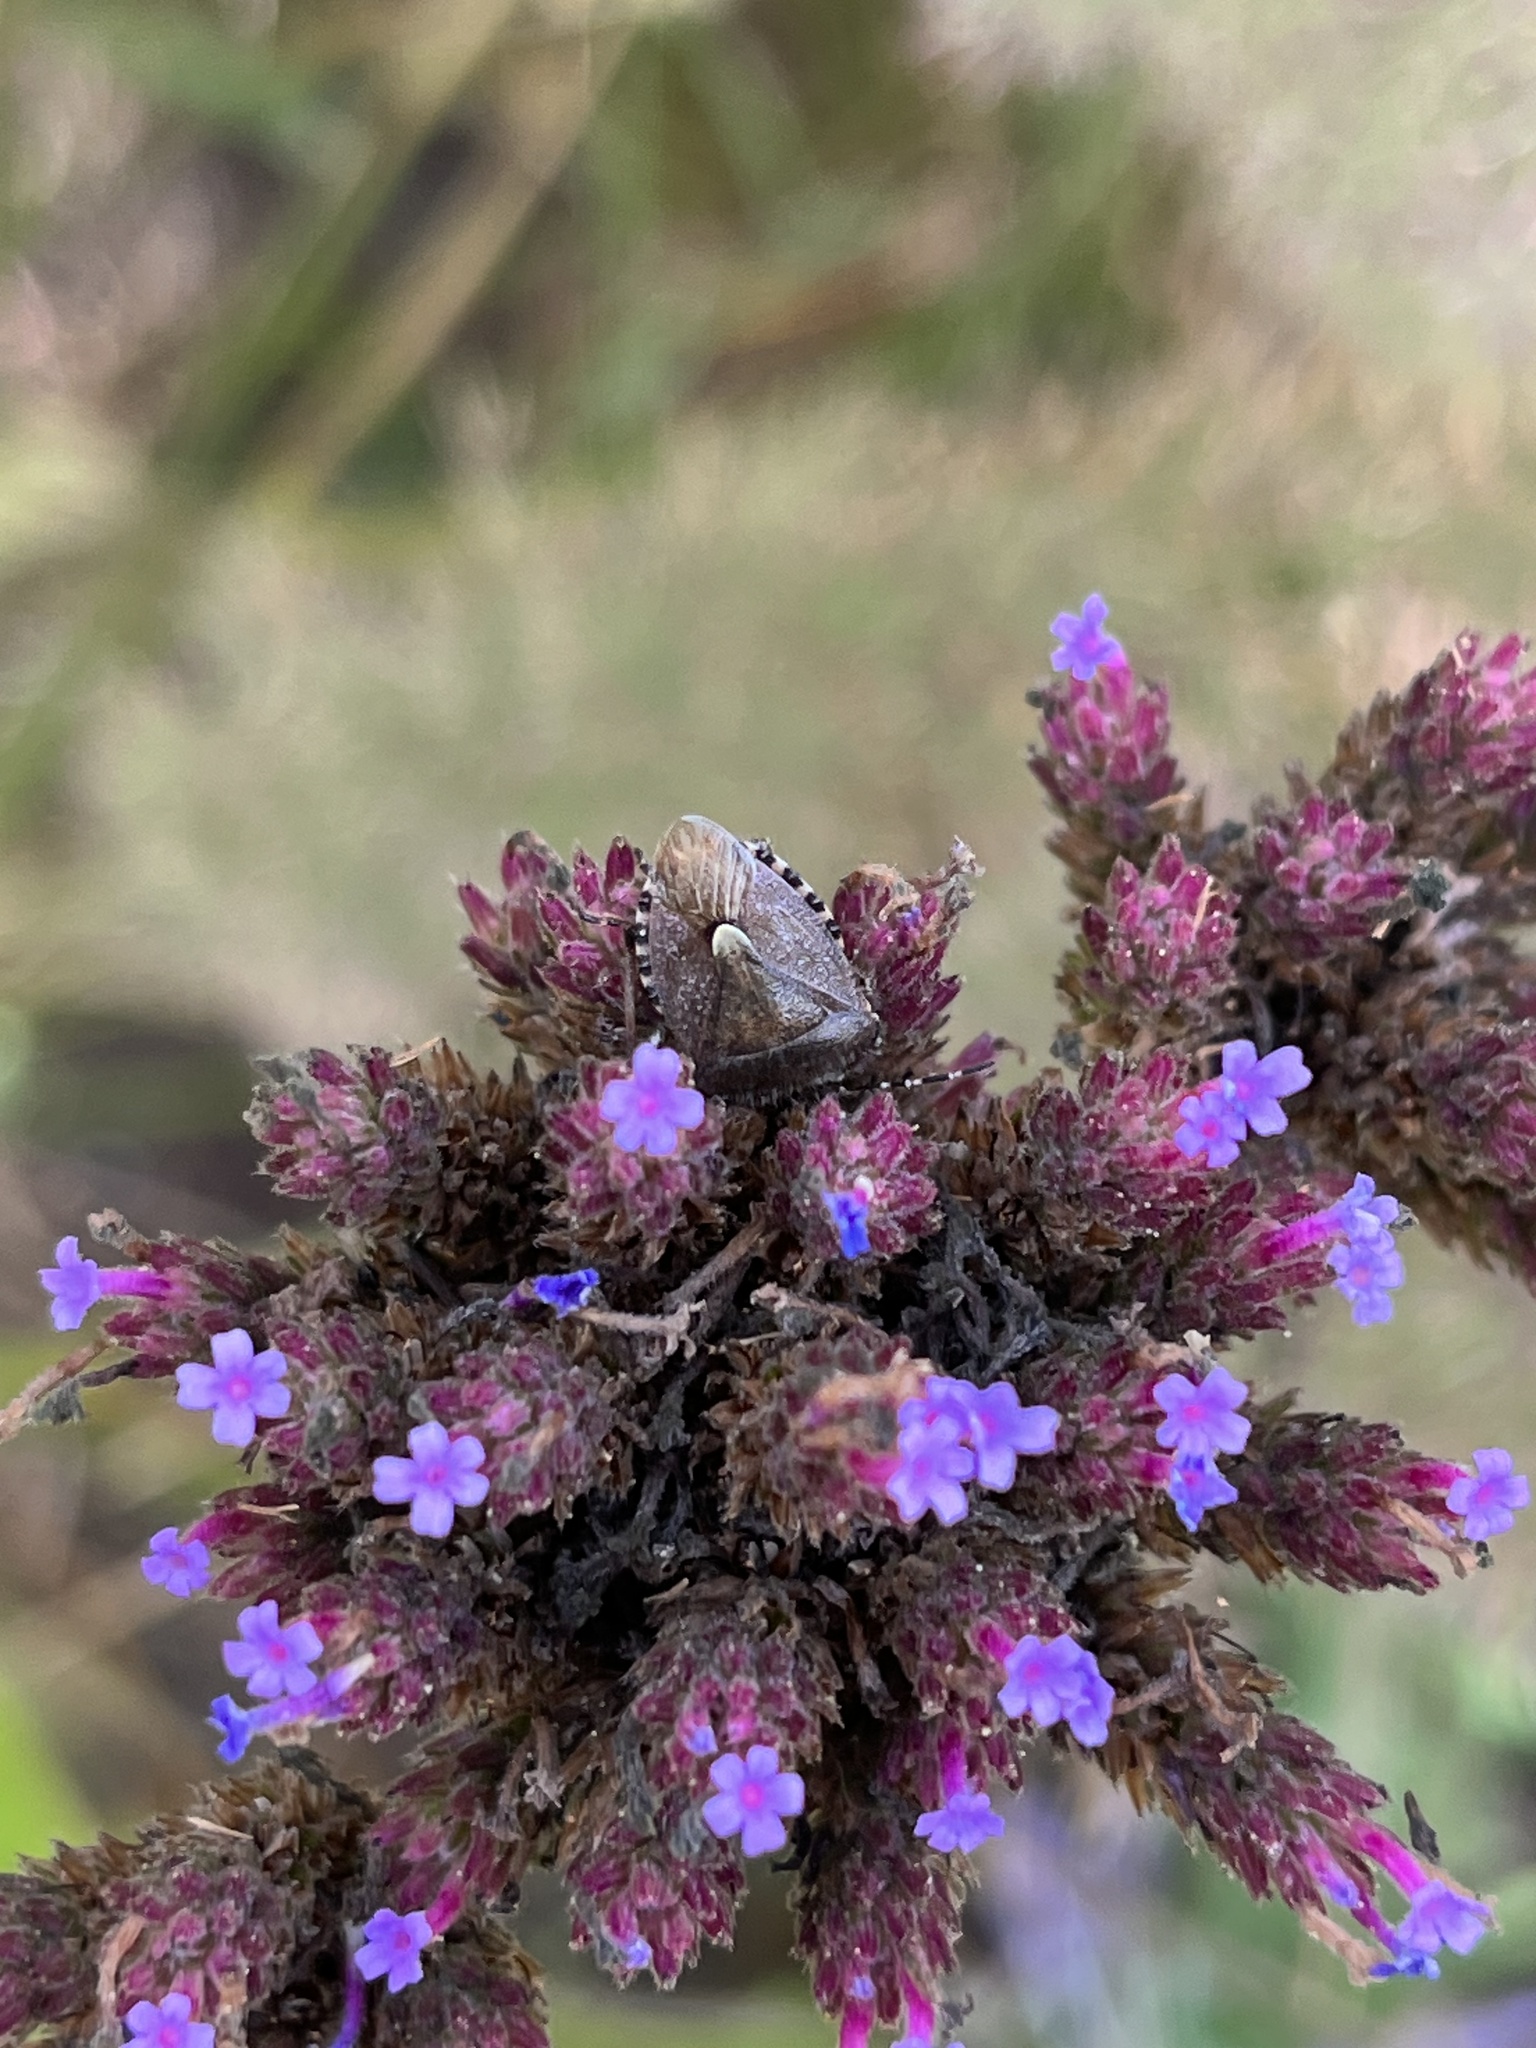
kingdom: Animalia
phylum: Arthropoda
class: Insecta
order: Hemiptera
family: Pentatomidae
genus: Dolycoris
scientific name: Dolycoris baccarum
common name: Sloe bug
